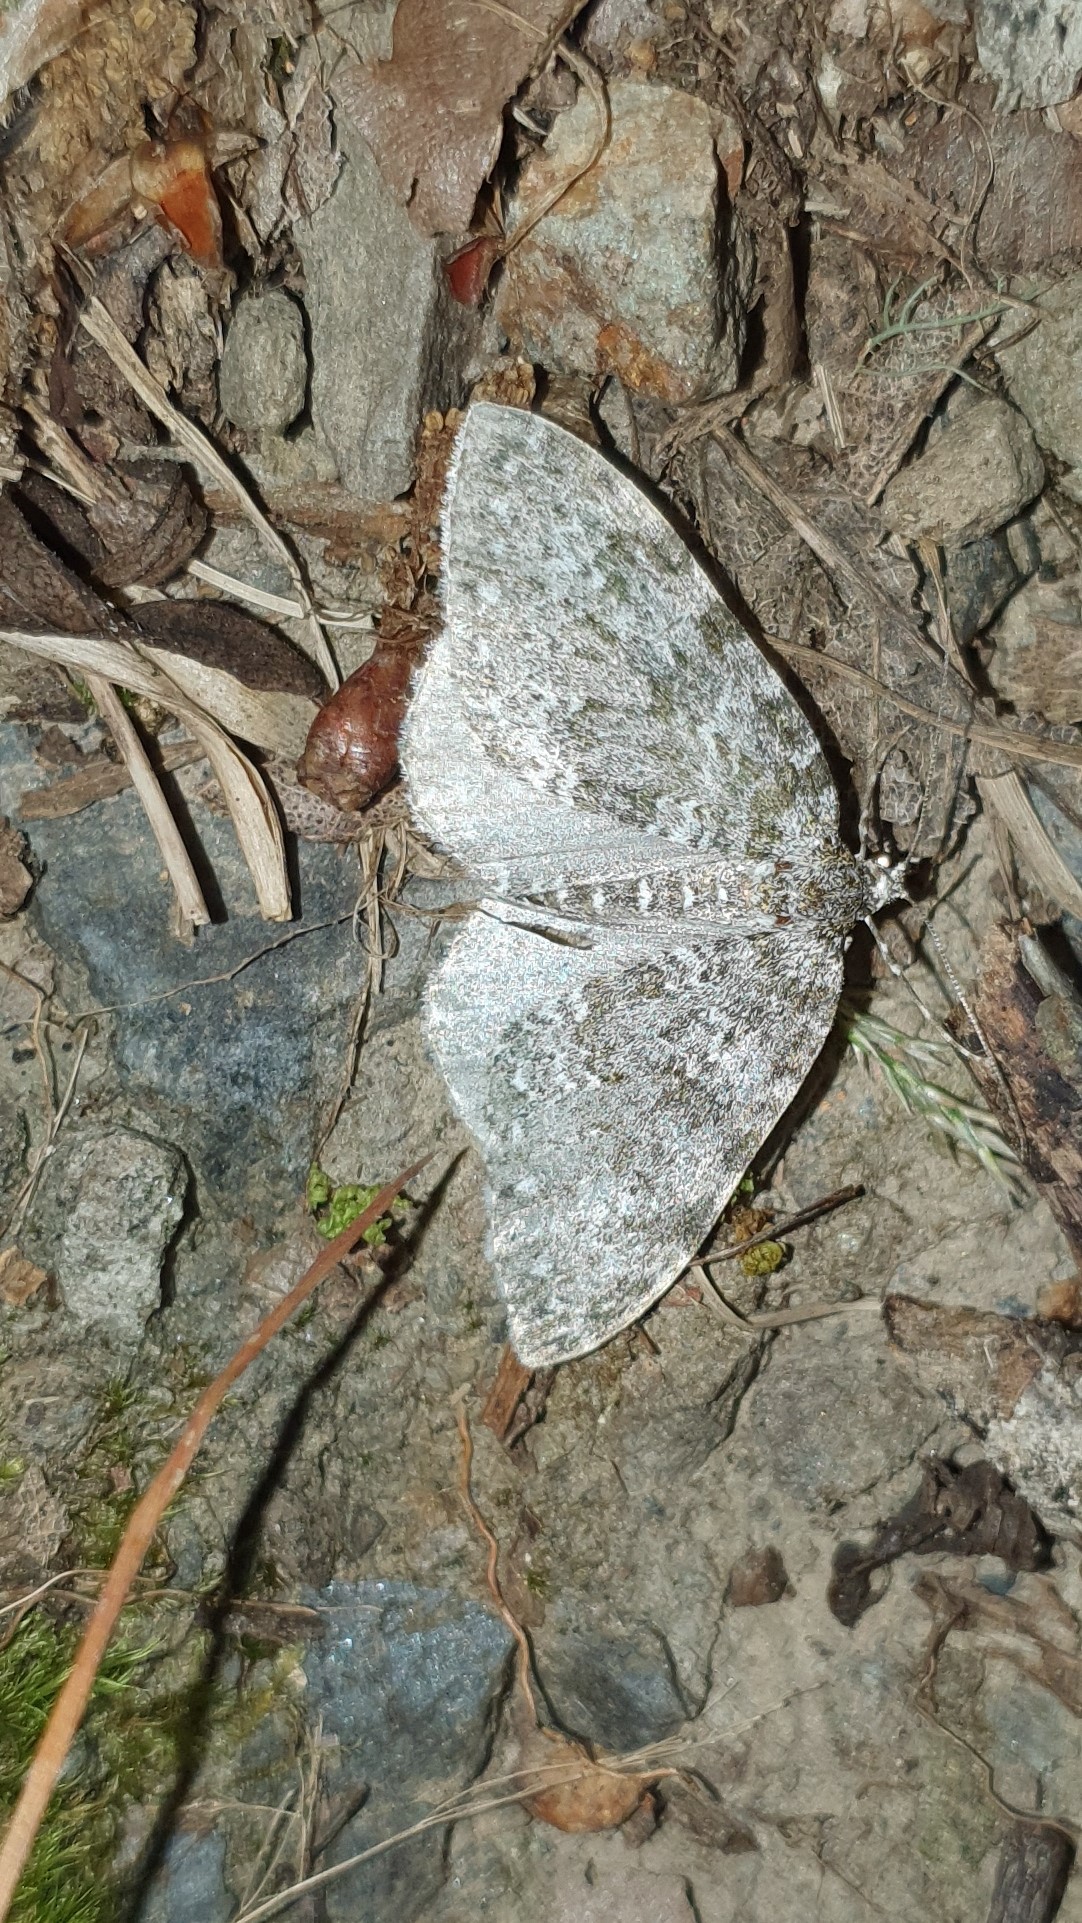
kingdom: Animalia
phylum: Arthropoda
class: Insecta
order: Lepidoptera
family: Geometridae
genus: Entephria
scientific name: Entephria caeruleata
